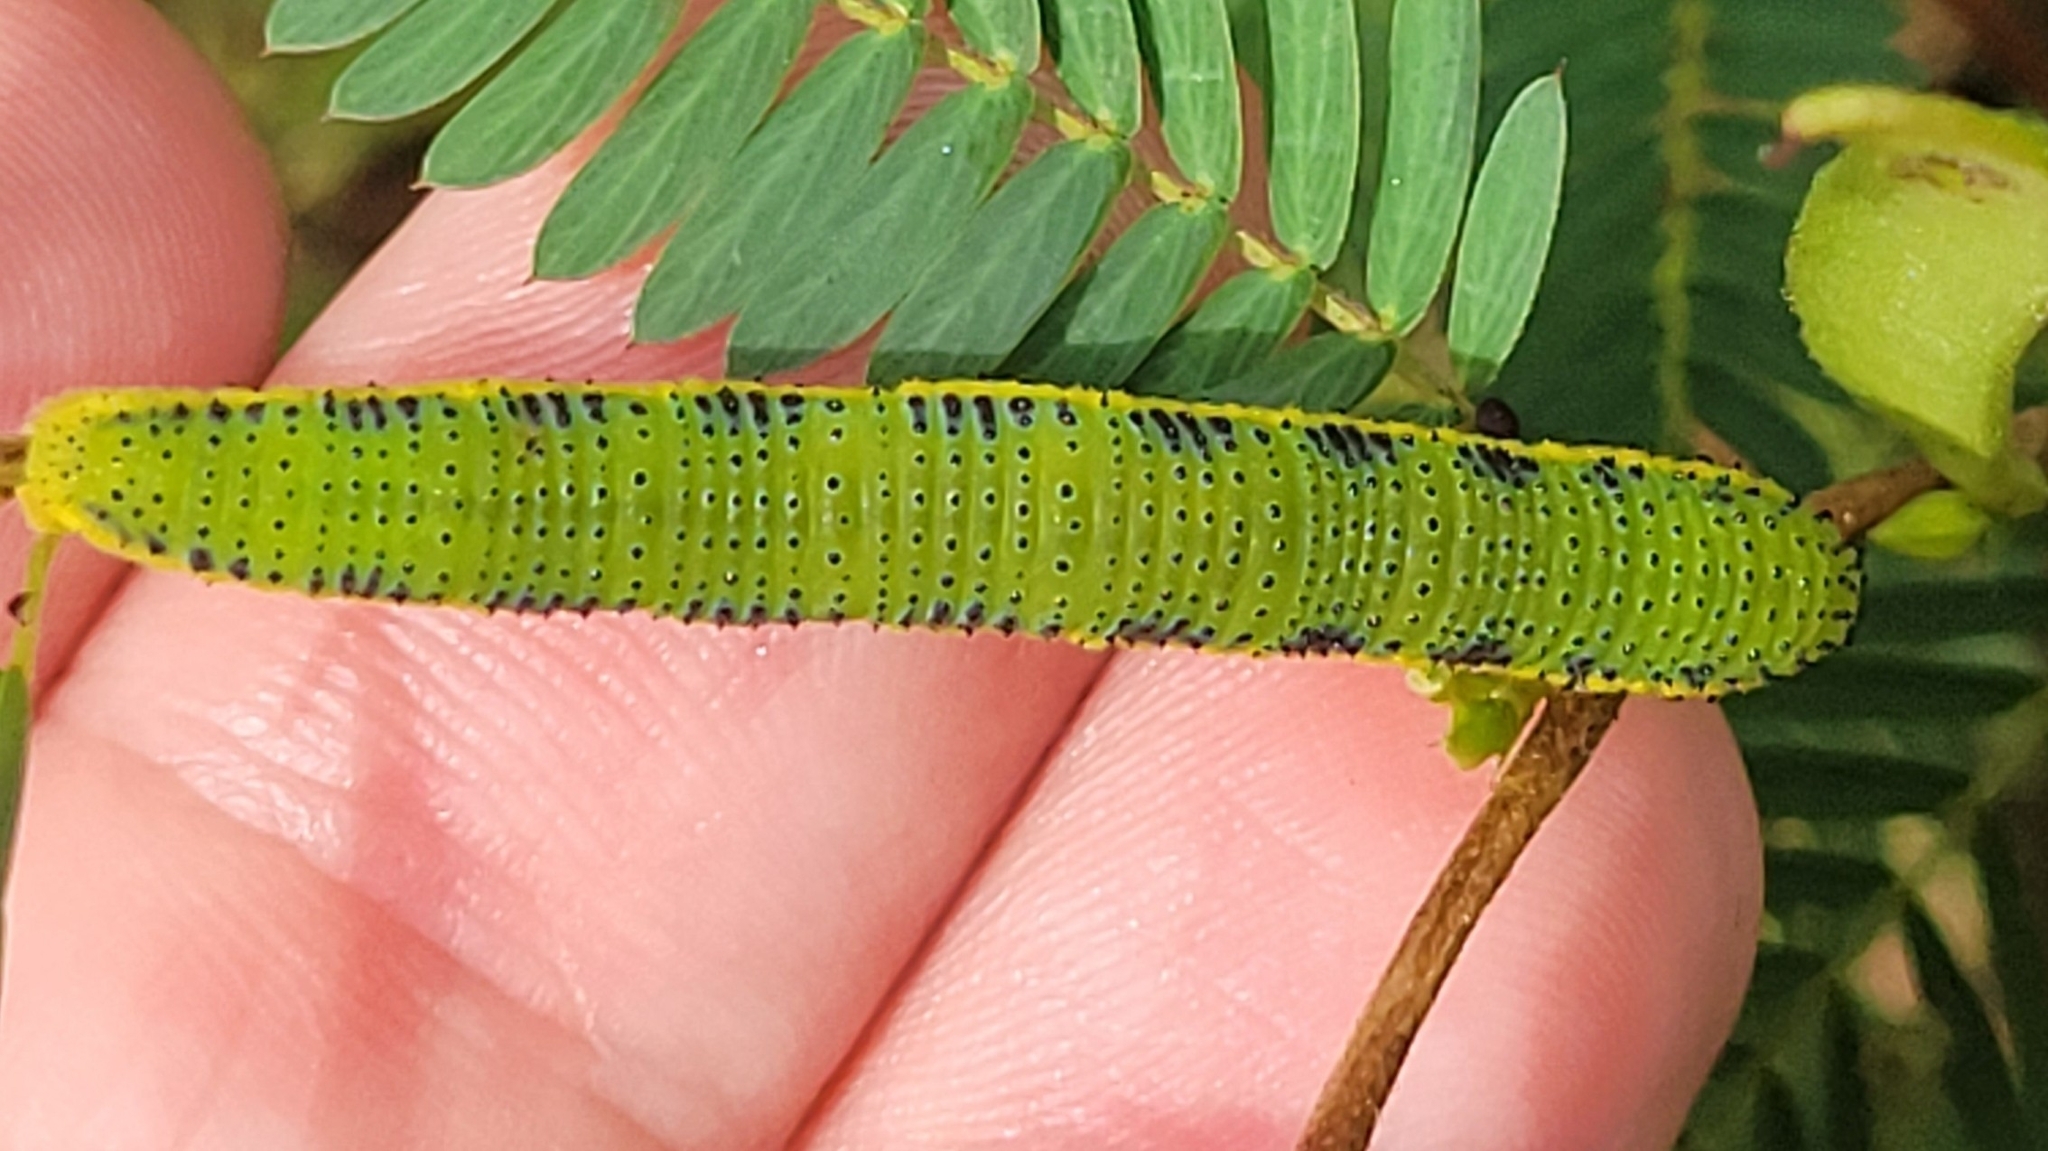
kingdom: Animalia
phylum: Arthropoda
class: Insecta
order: Lepidoptera
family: Pieridae
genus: Phoebis
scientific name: Phoebis sennae
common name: Cloudless sulphur
